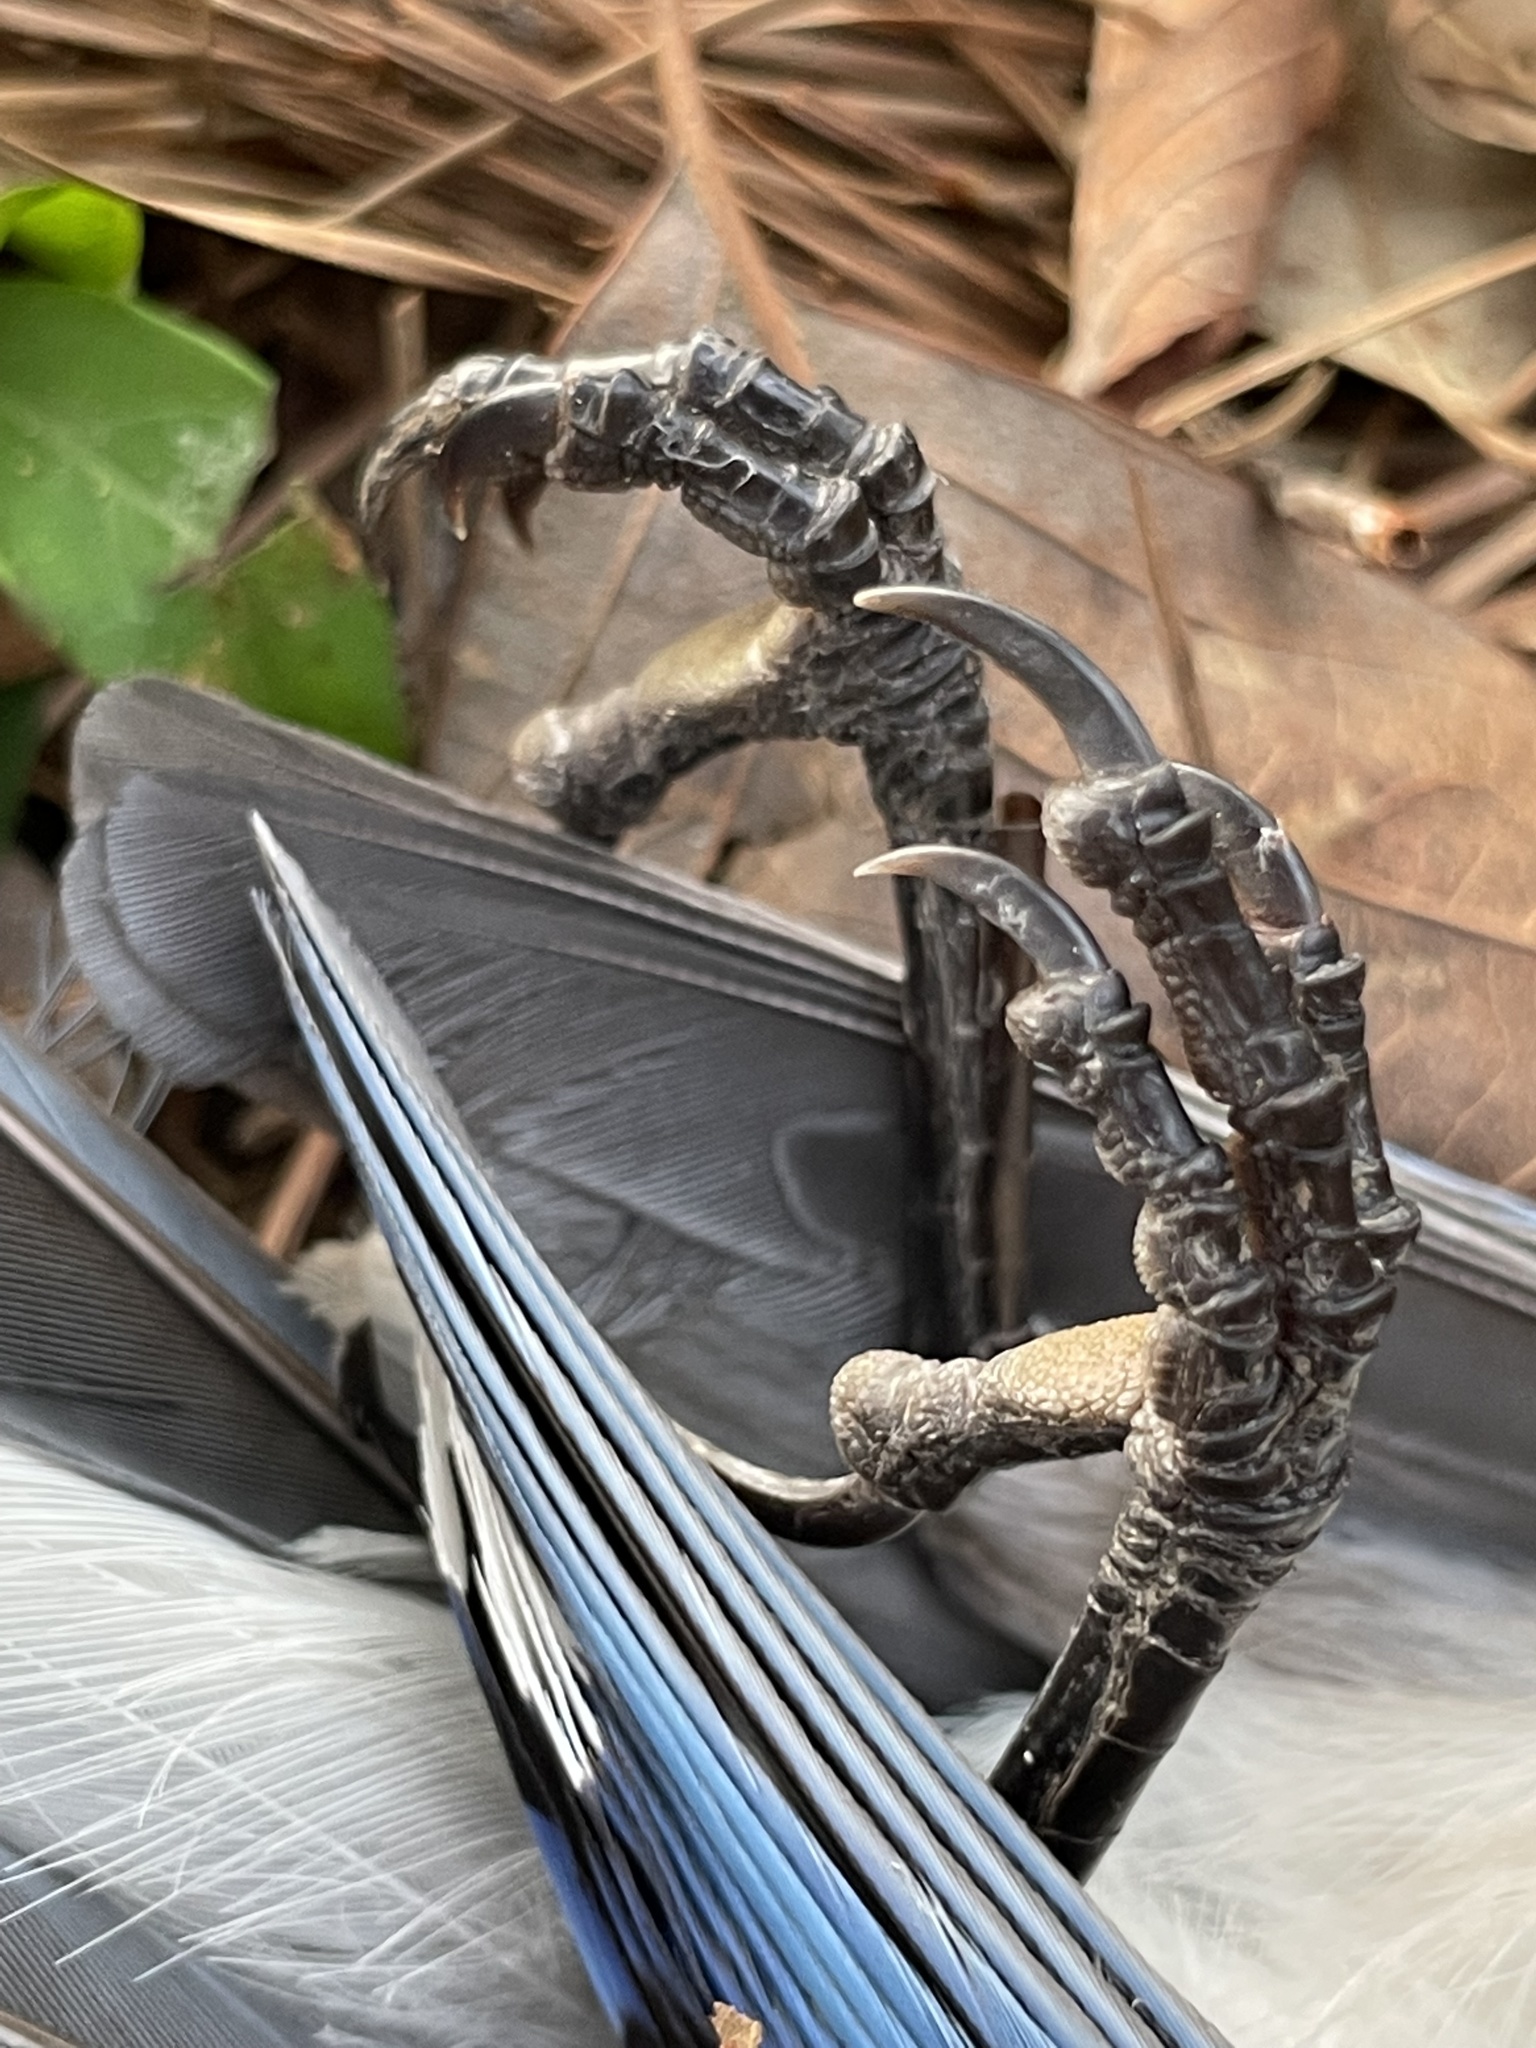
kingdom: Animalia
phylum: Chordata
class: Aves
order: Passeriformes
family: Corvidae
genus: Cyanocitta
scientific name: Cyanocitta cristata
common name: Blue jay
